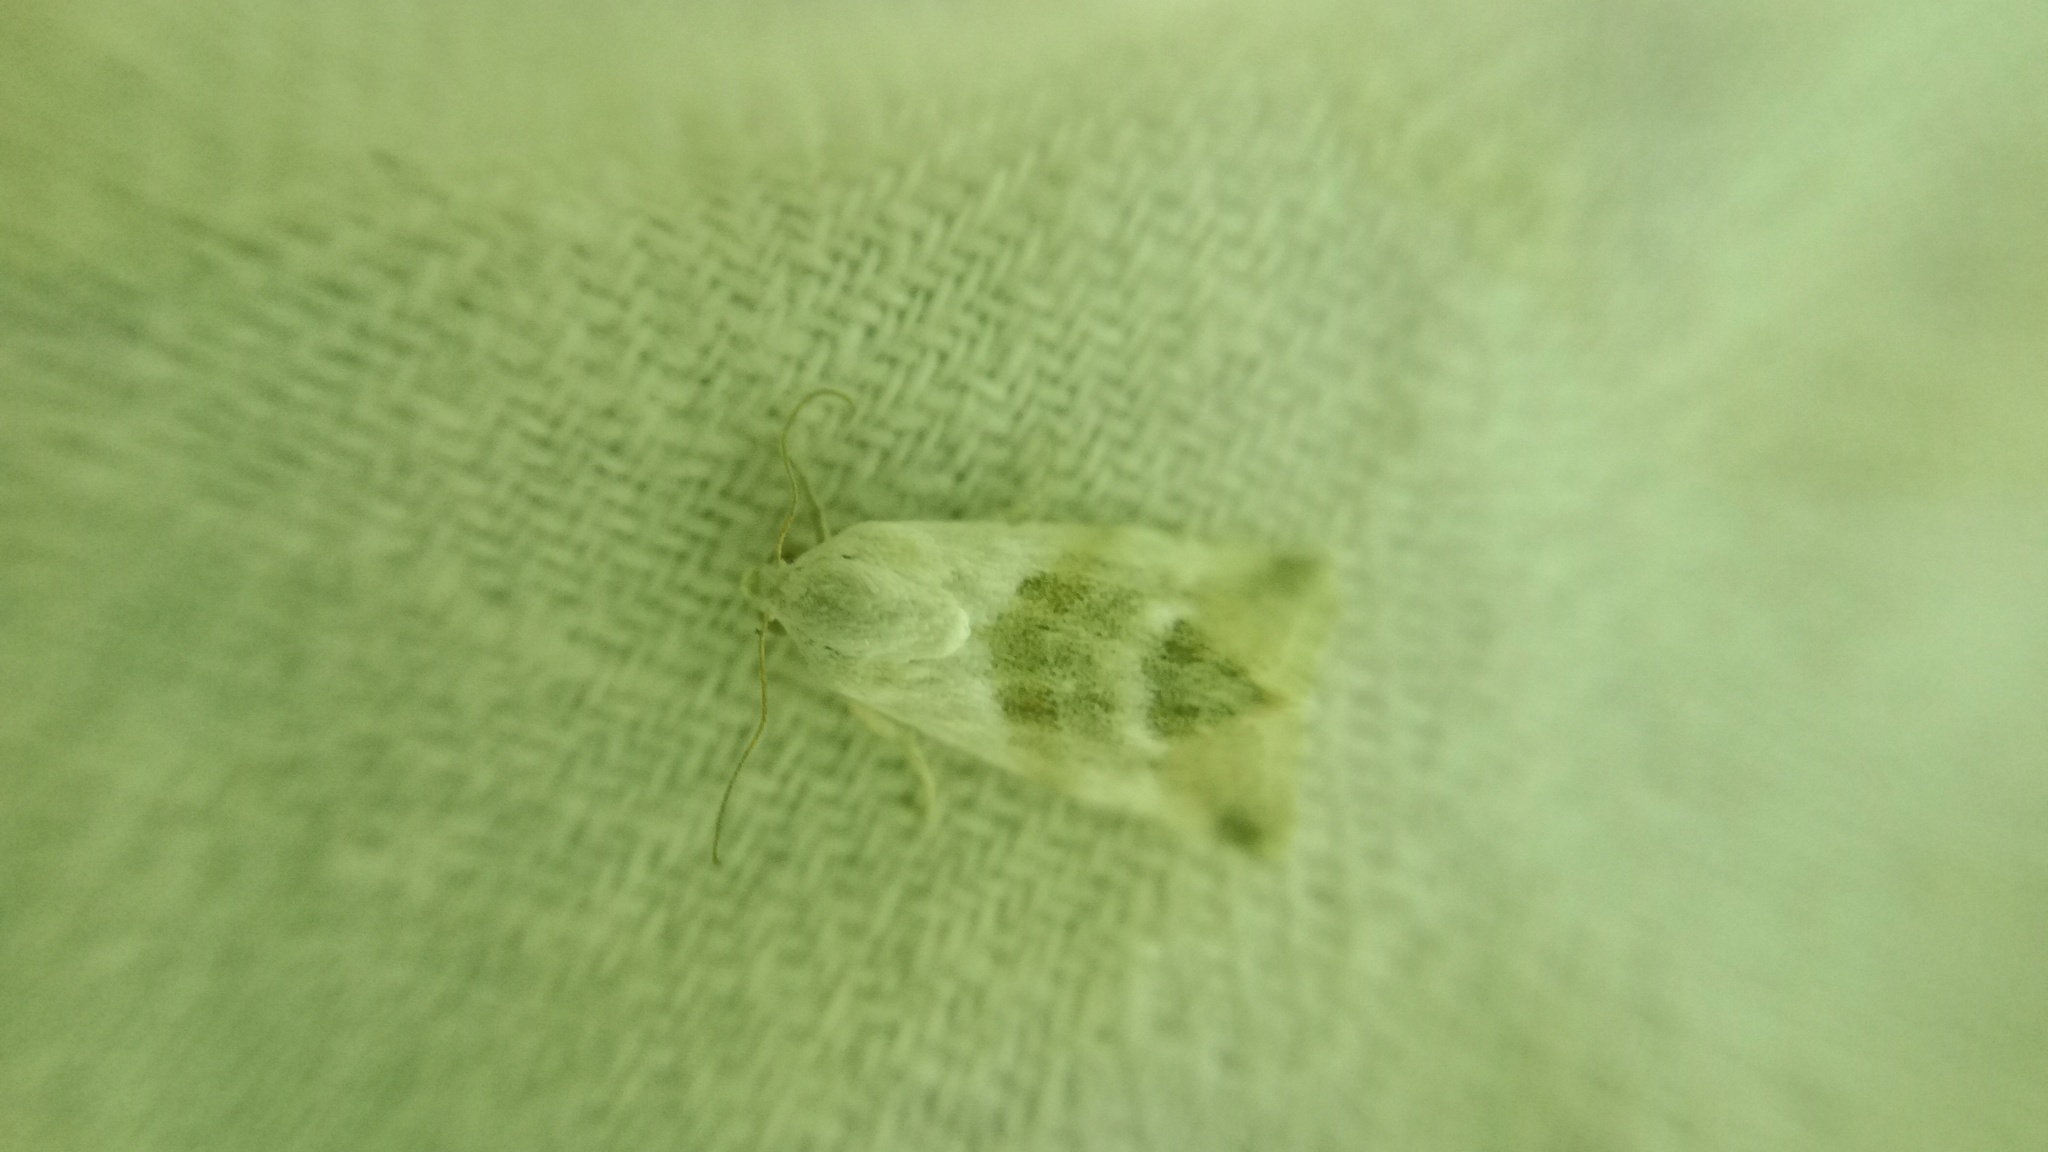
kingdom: Animalia
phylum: Arthropoda
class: Insecta
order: Lepidoptera
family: Noctuidae
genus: Eublemma
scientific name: Eublemma minutata
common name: Scarce marbled
